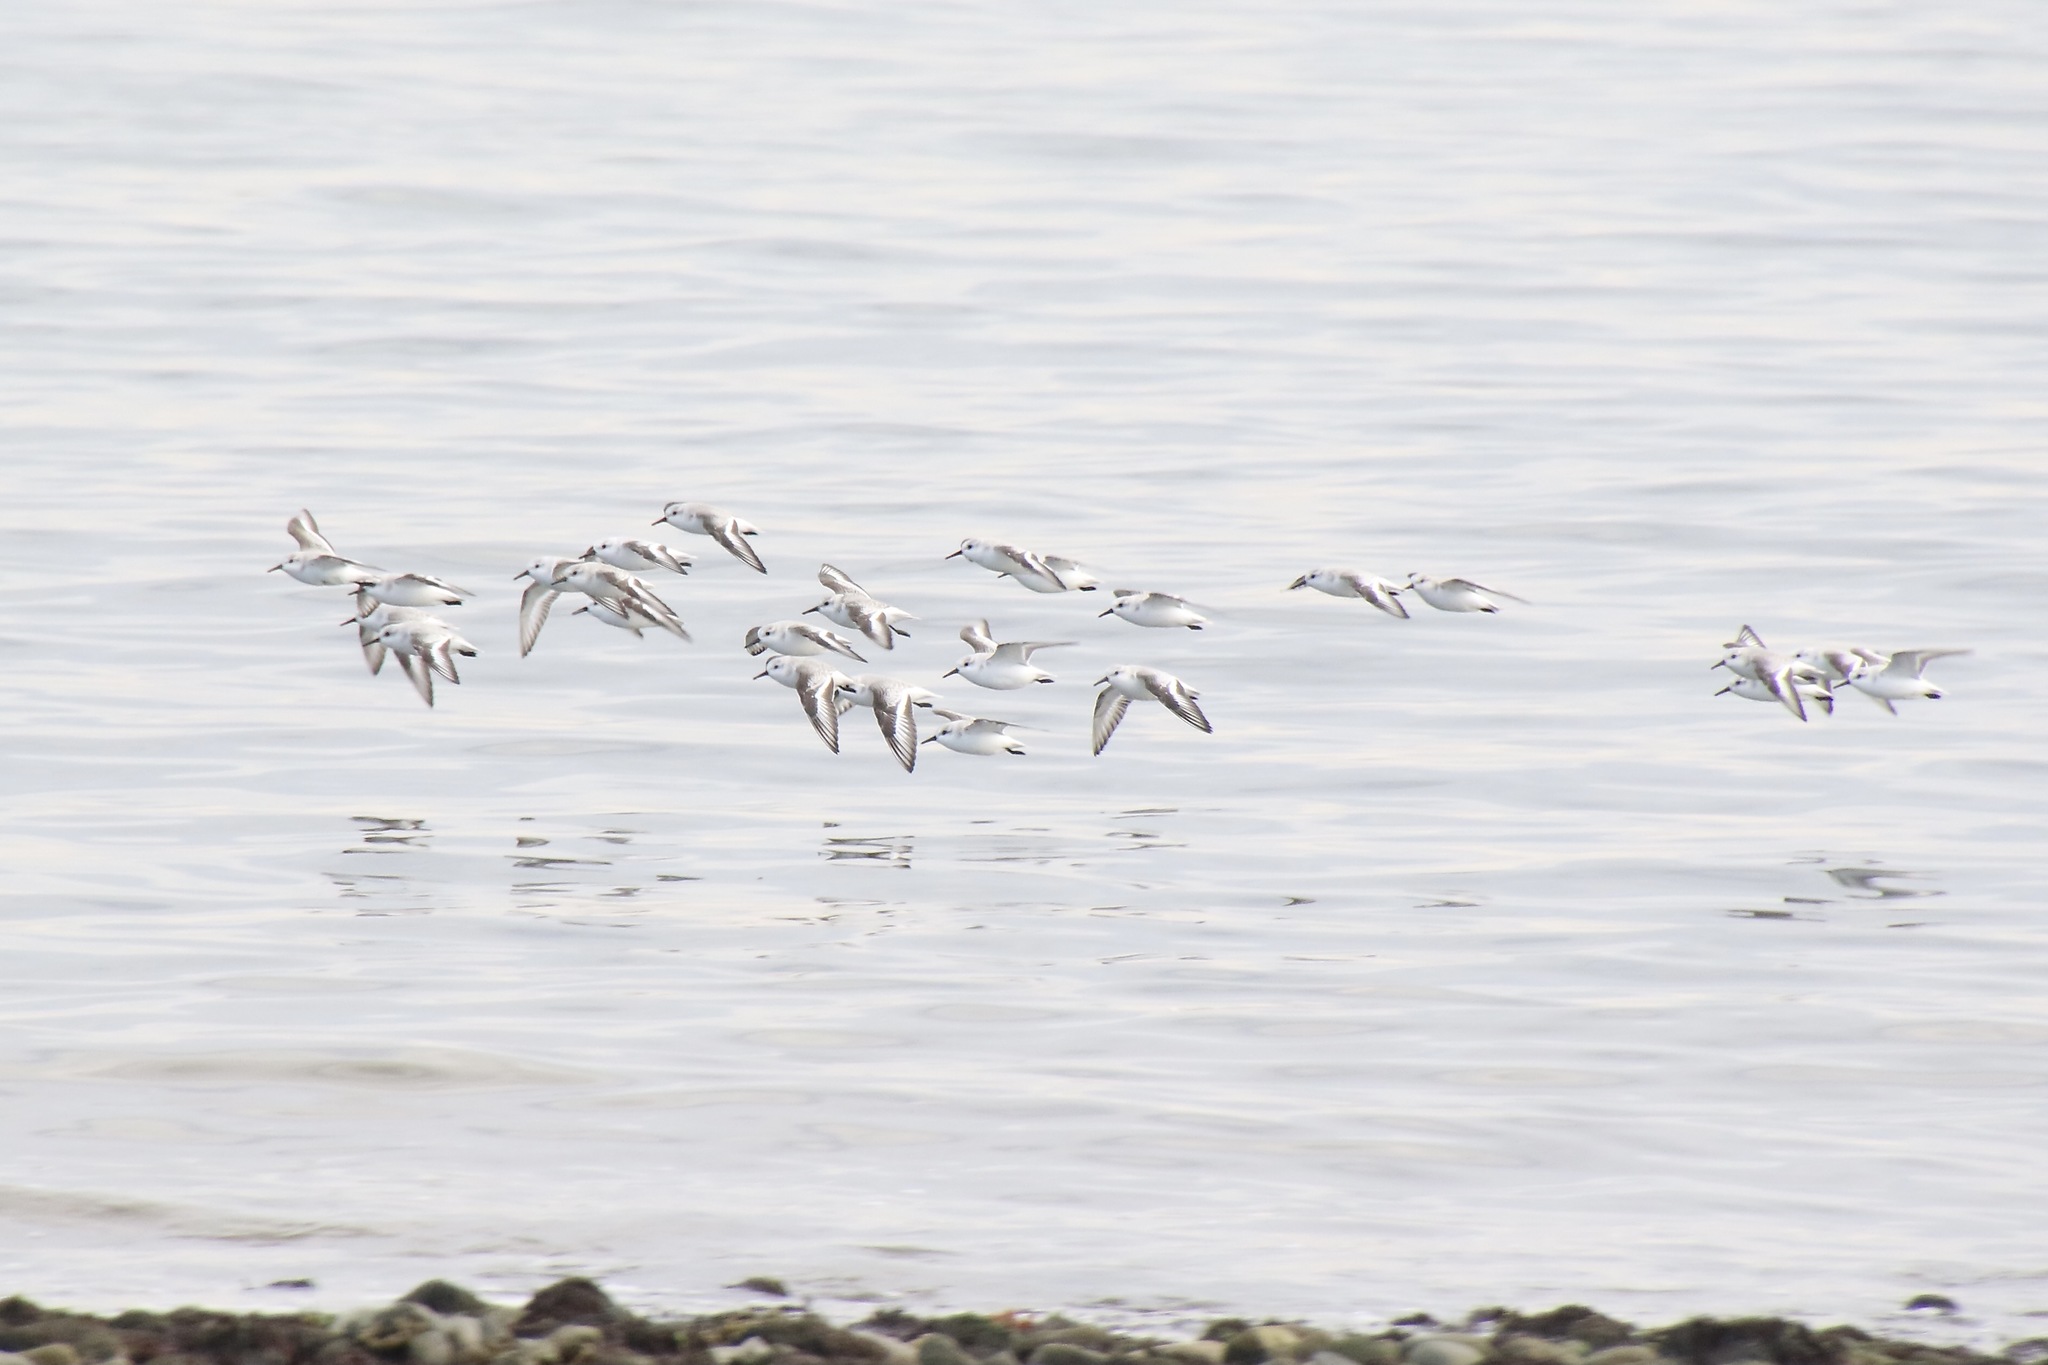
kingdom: Animalia
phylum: Chordata
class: Aves
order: Charadriiformes
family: Scolopacidae
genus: Calidris
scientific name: Calidris alba
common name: Sanderling
